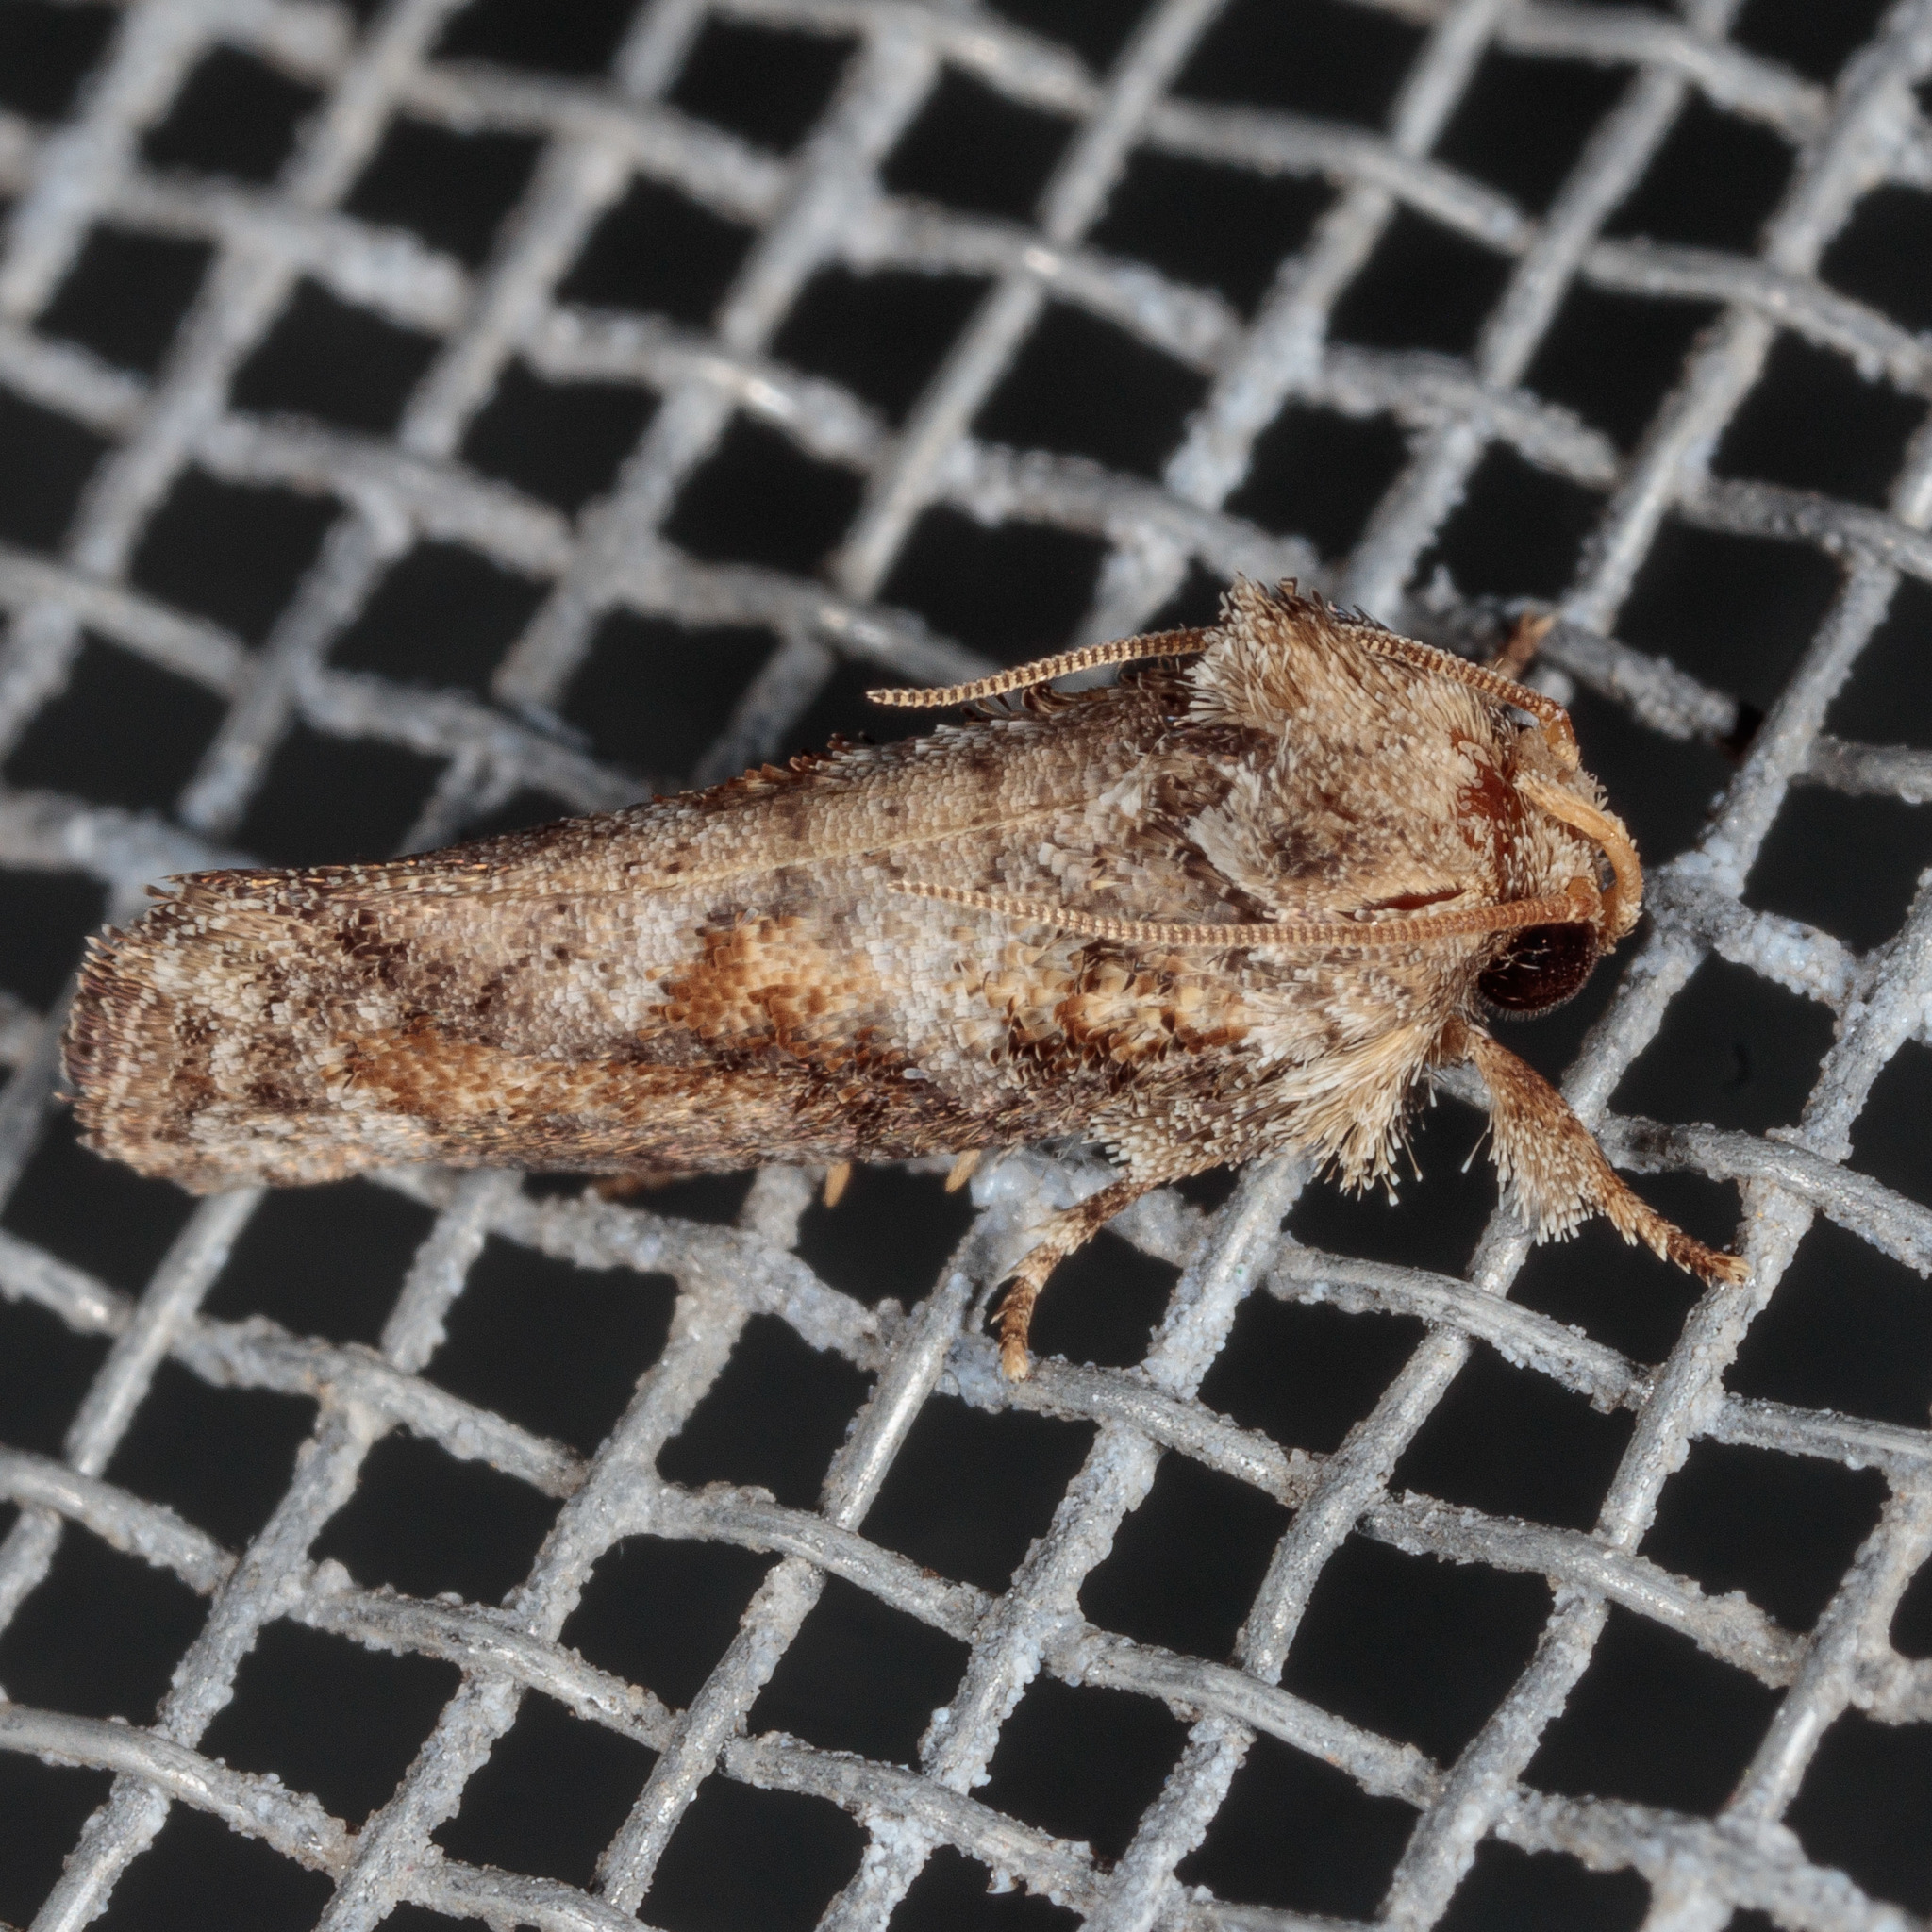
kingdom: Animalia
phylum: Arthropoda
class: Insecta
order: Lepidoptera
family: Tineidae
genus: Acrolophus
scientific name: Acrolophus piger
